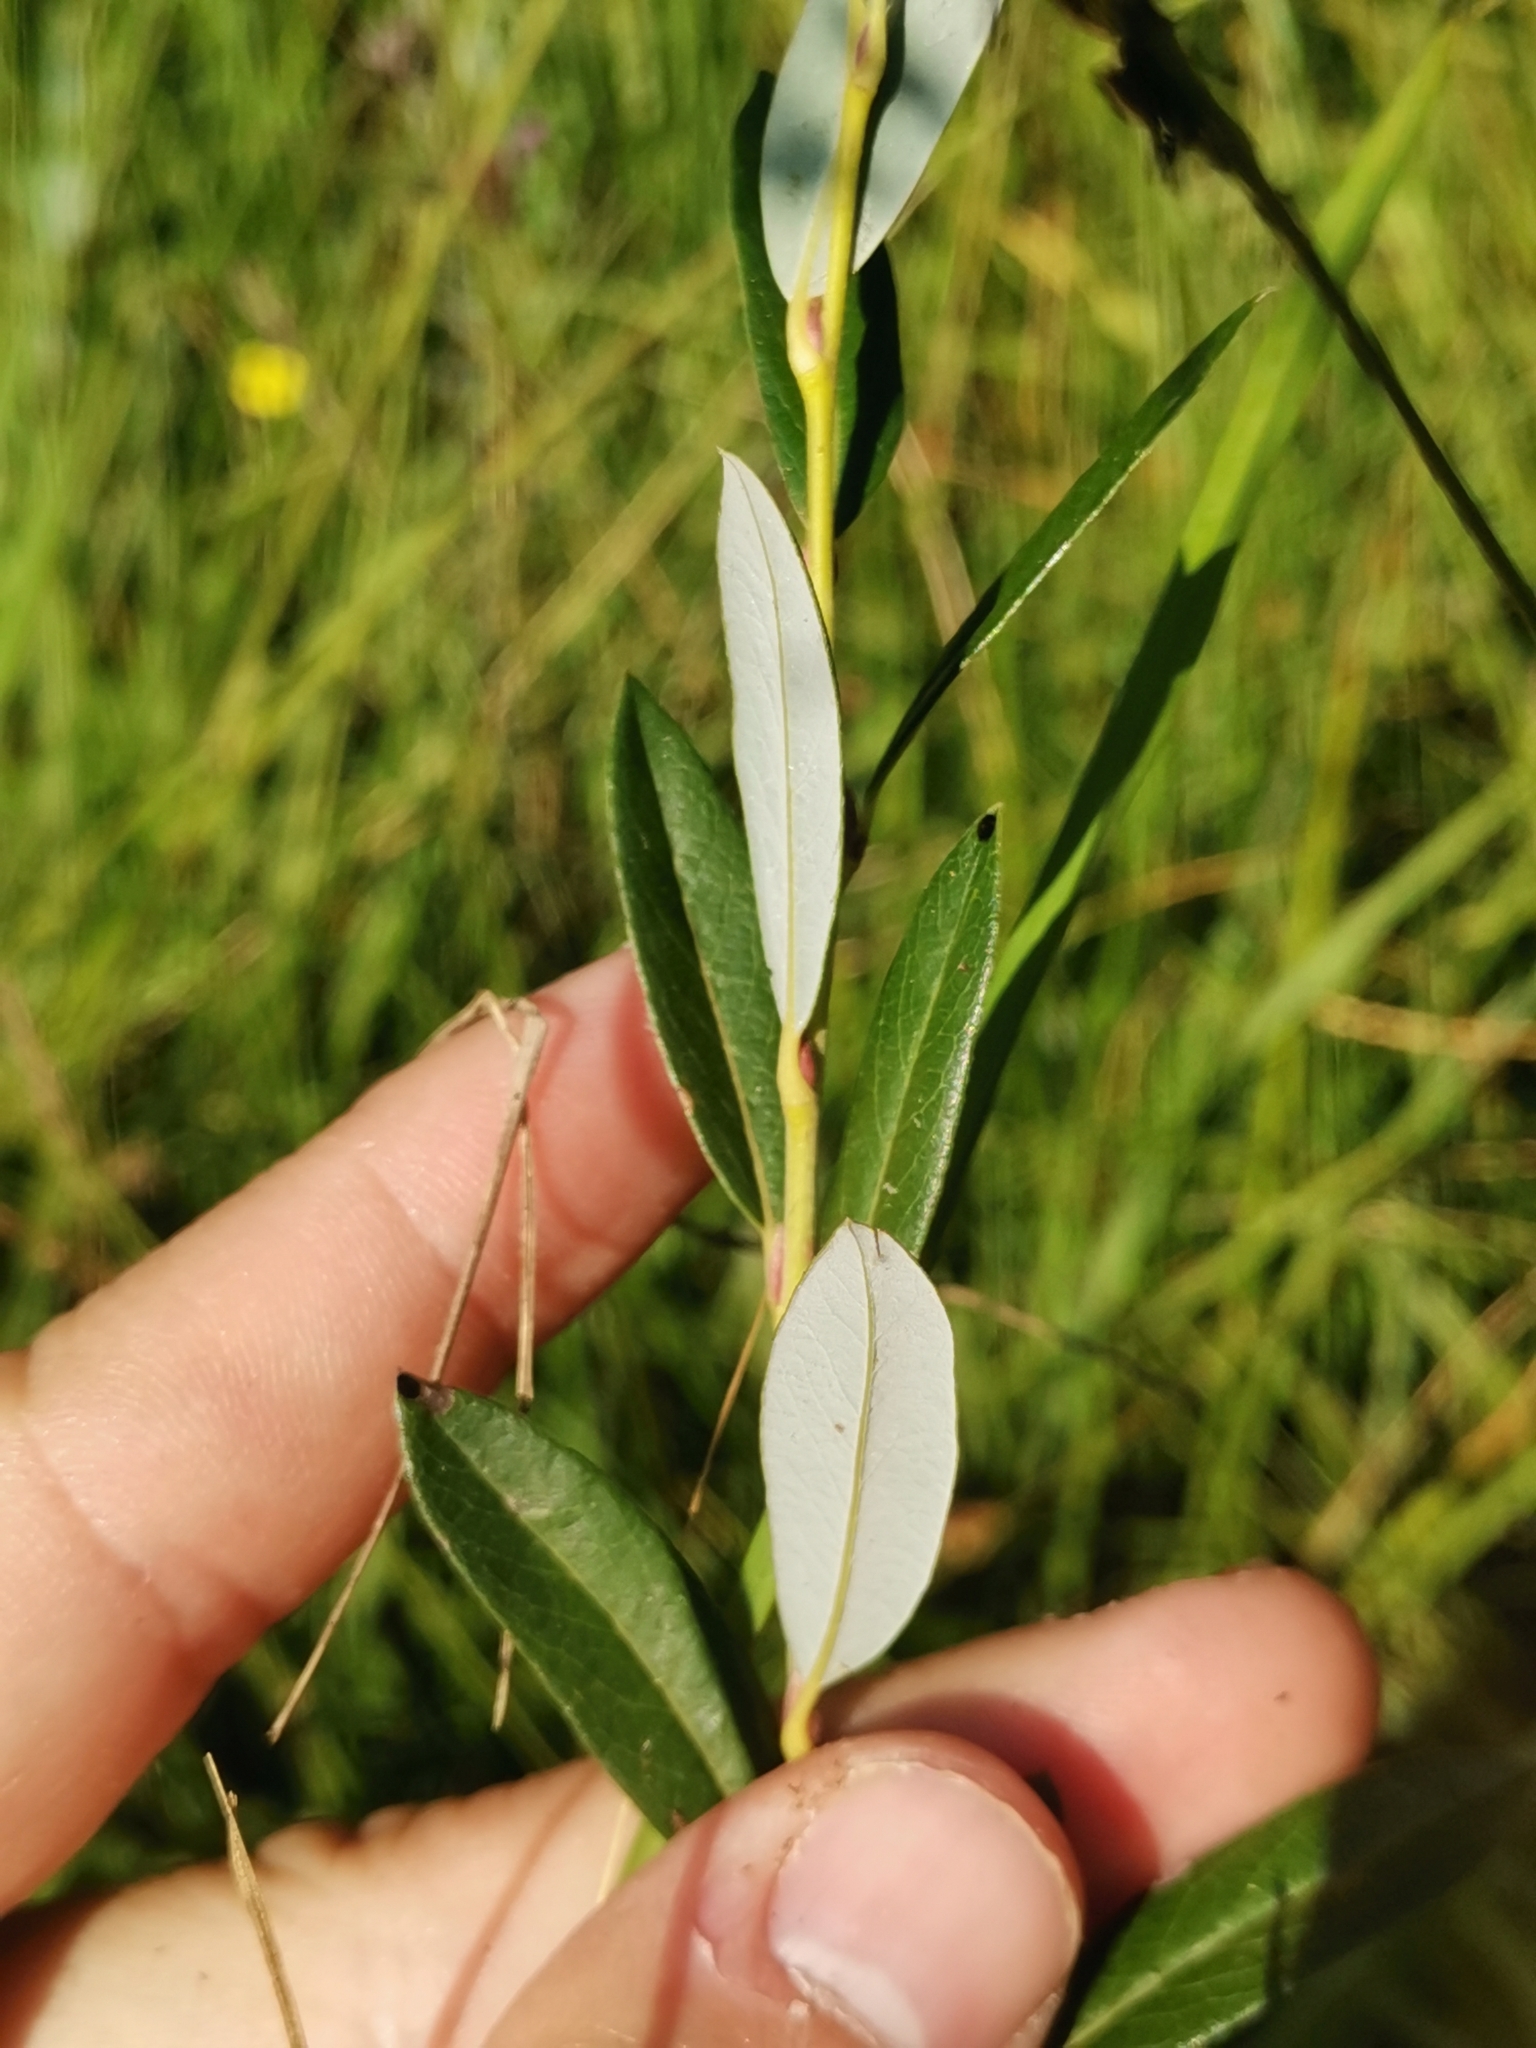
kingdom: Plantae
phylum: Tracheophyta
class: Magnoliopsida
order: Malpighiales
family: Salicaceae
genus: Salix
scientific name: Salix rosmarinifolia
